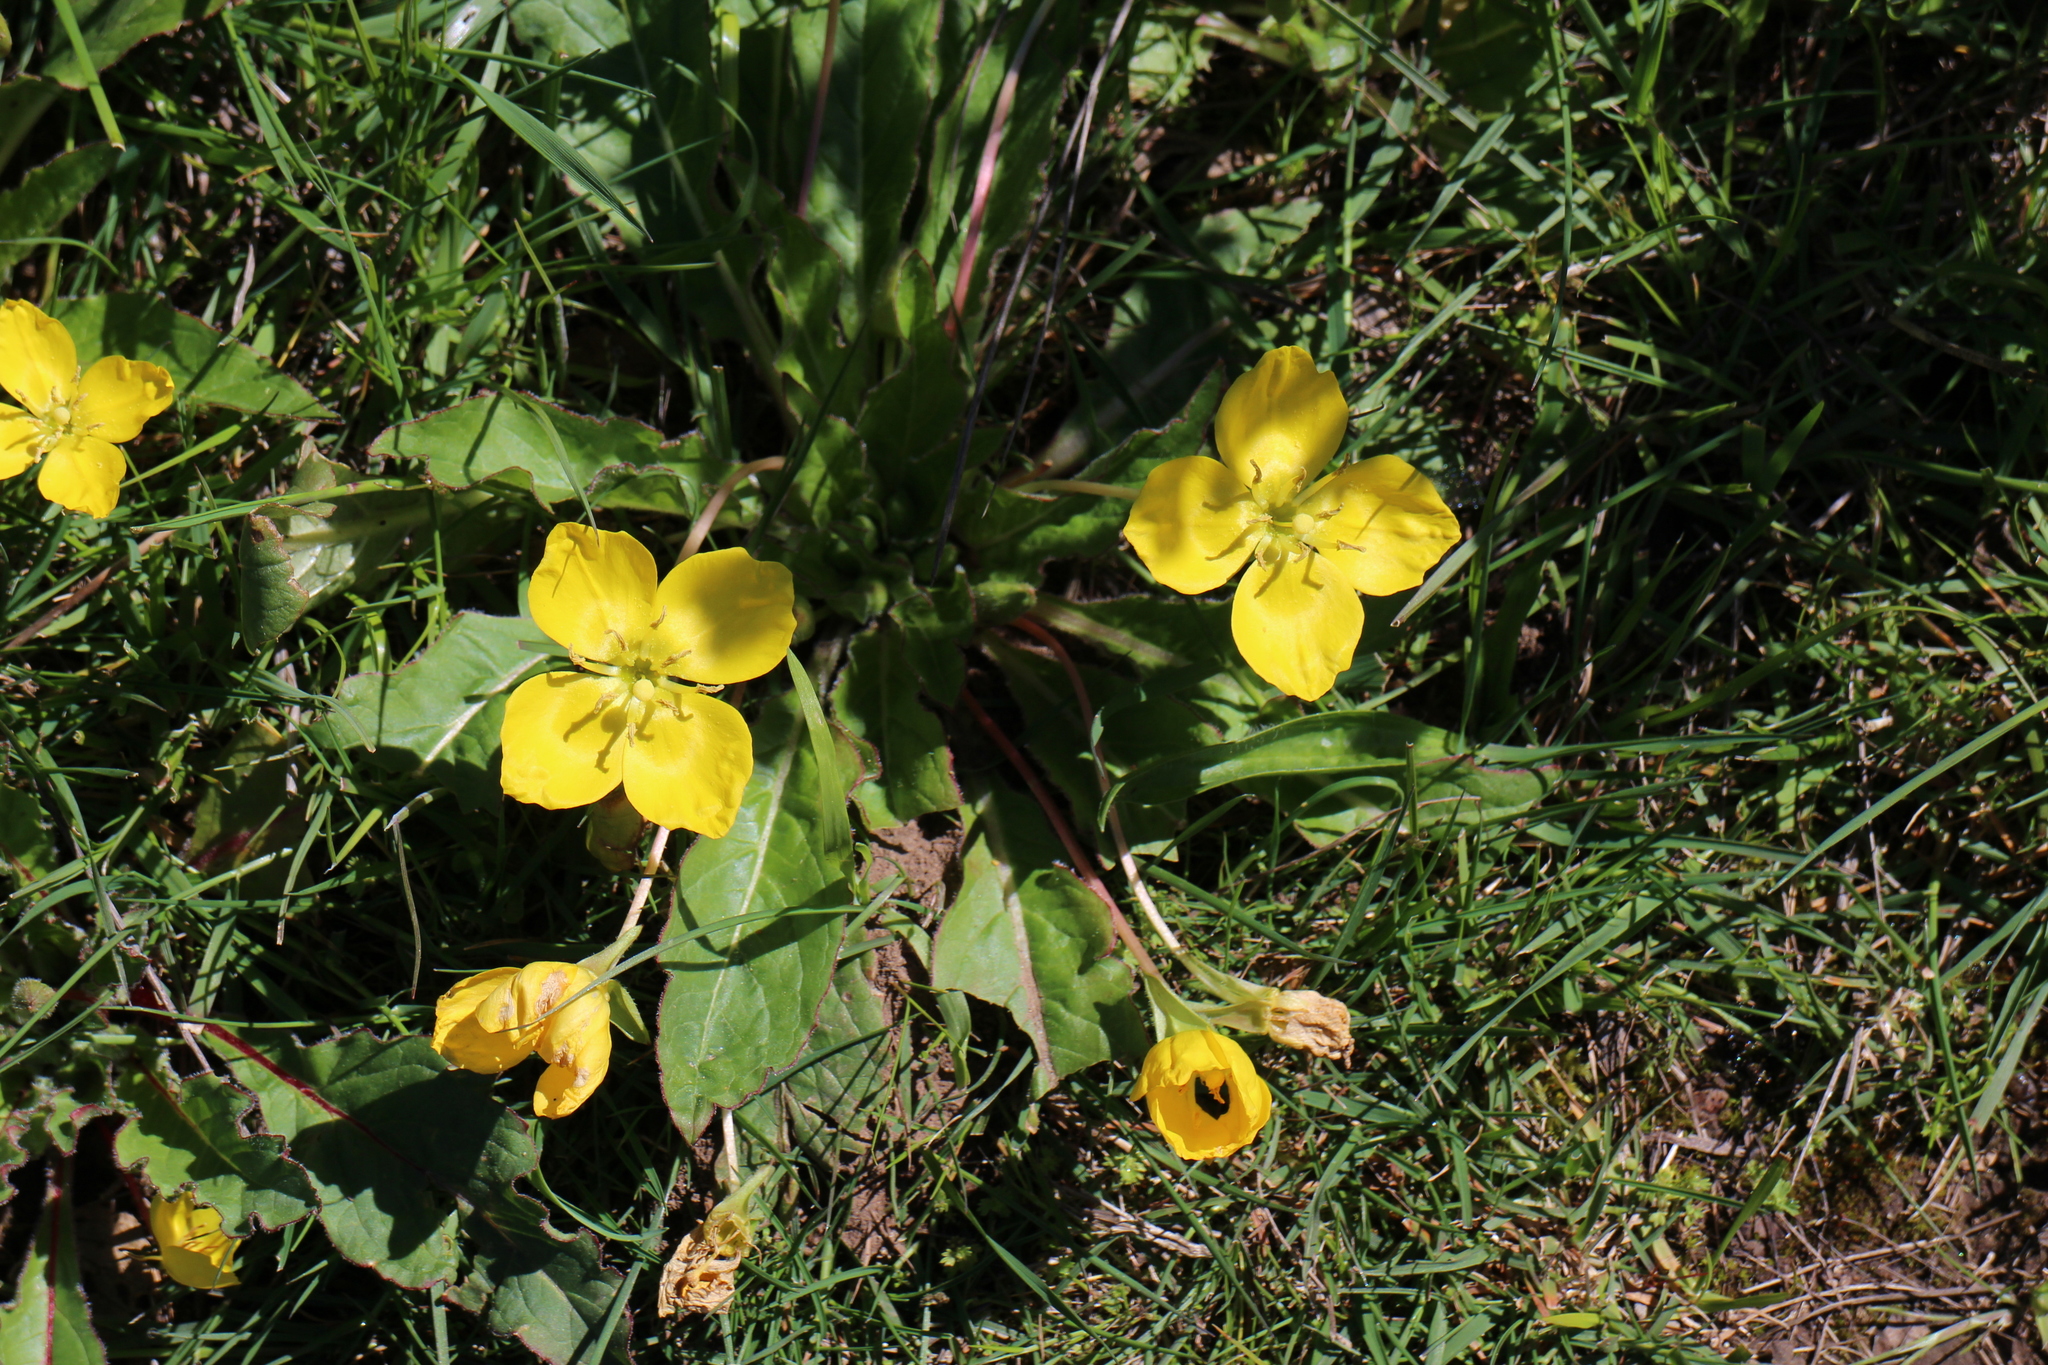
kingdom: Plantae
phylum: Tracheophyta
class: Magnoliopsida
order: Myrtales
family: Onagraceae
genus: Taraxia
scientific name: Taraxia ovata
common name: Goldeneggs
